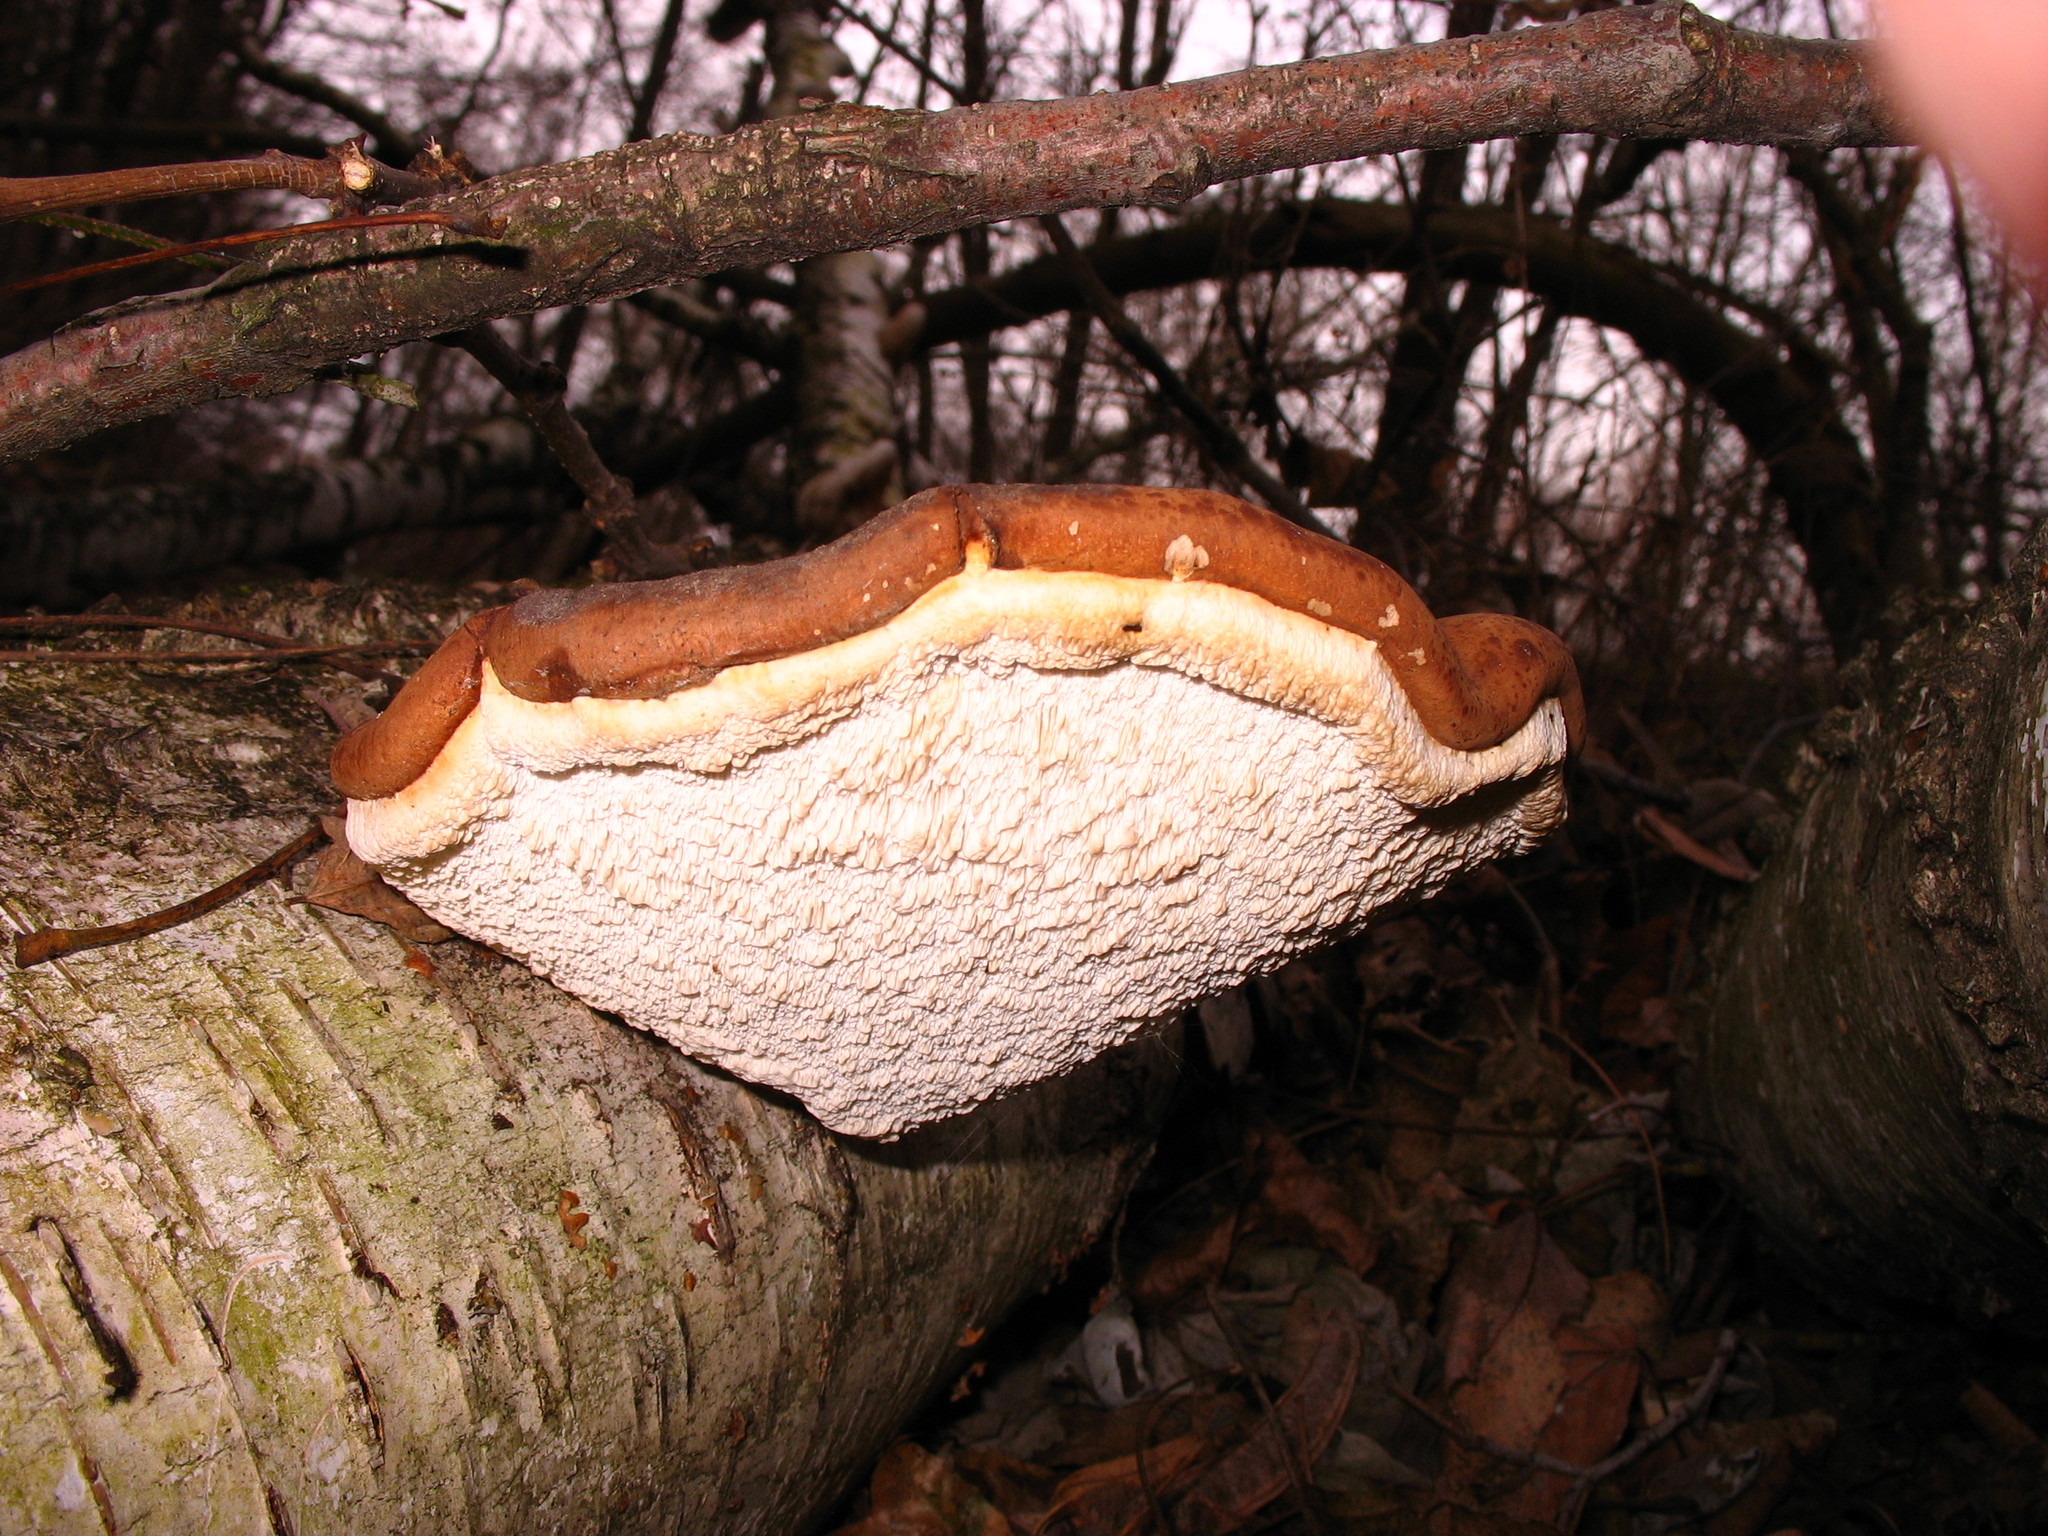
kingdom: Fungi
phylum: Basidiomycota
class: Agaricomycetes
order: Polyporales
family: Fomitopsidaceae
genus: Fomitopsis
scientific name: Fomitopsis betulina
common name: Birch polypore
